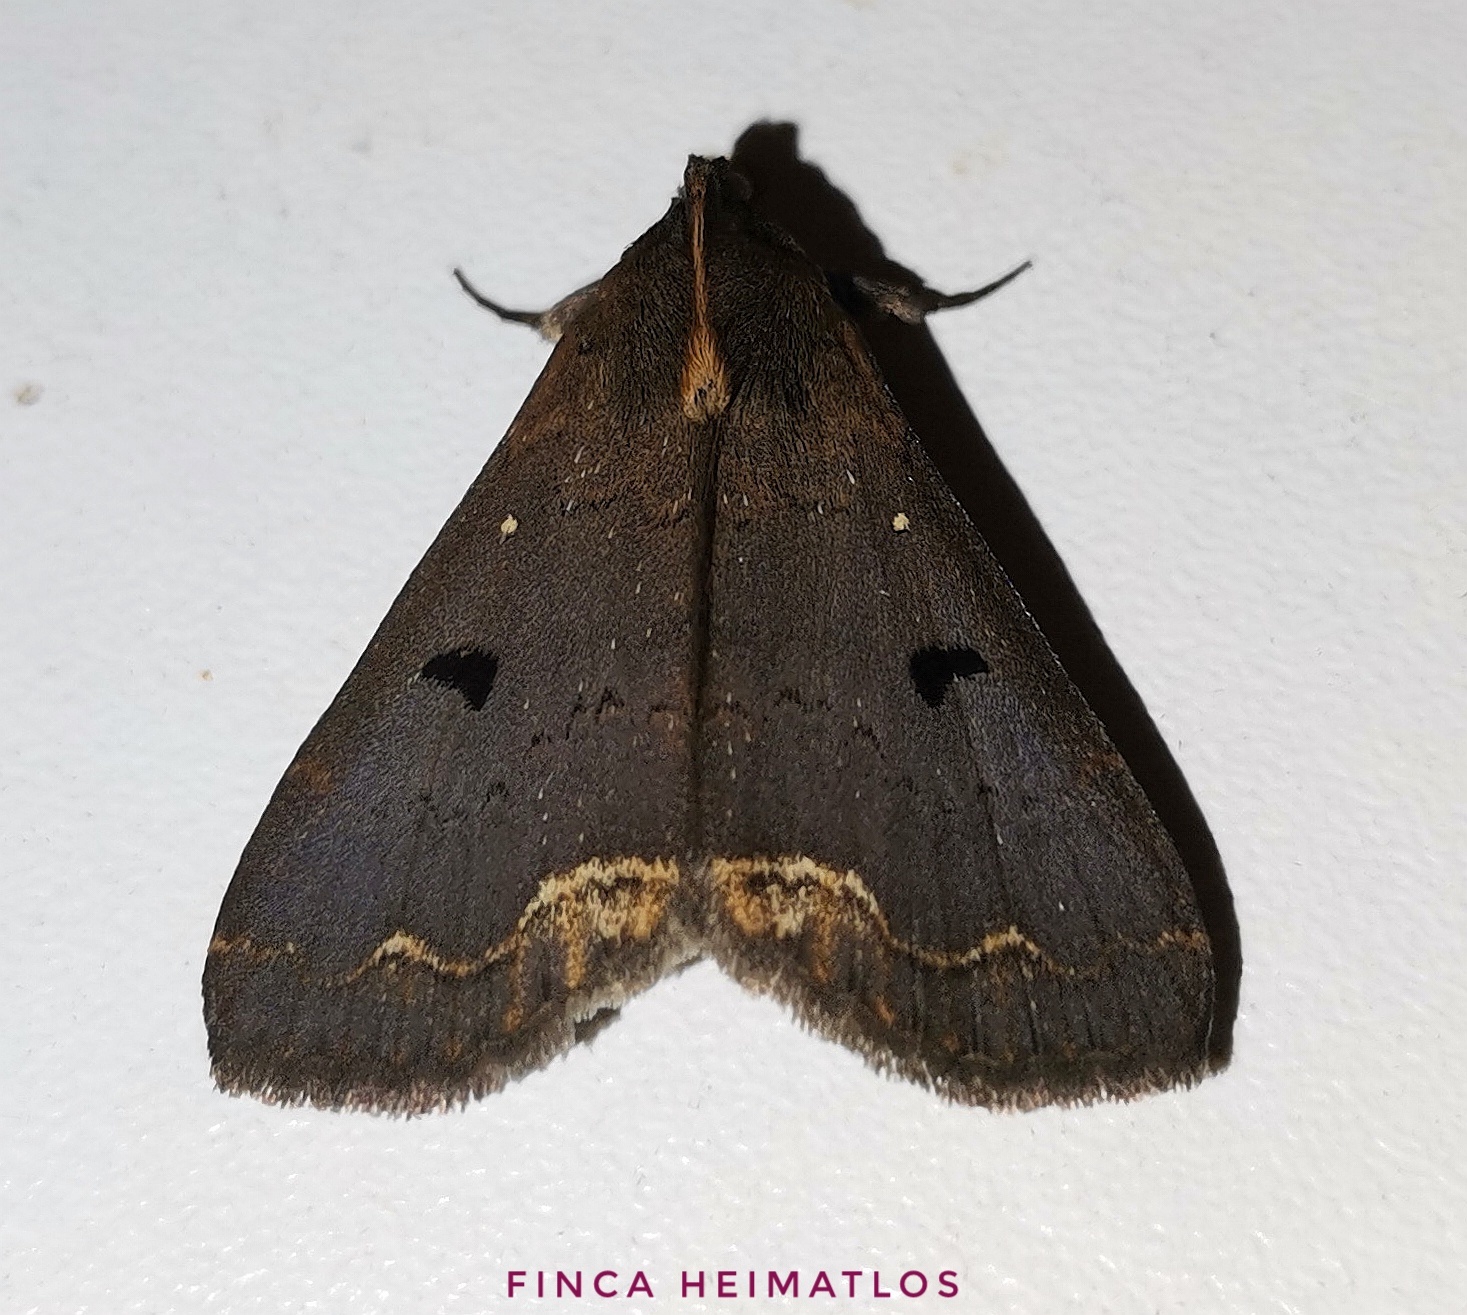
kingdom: Animalia
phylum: Arthropoda
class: Insecta
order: Lepidoptera
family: Erebidae
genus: Rejectaria
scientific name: Rejectaria cocytalis
